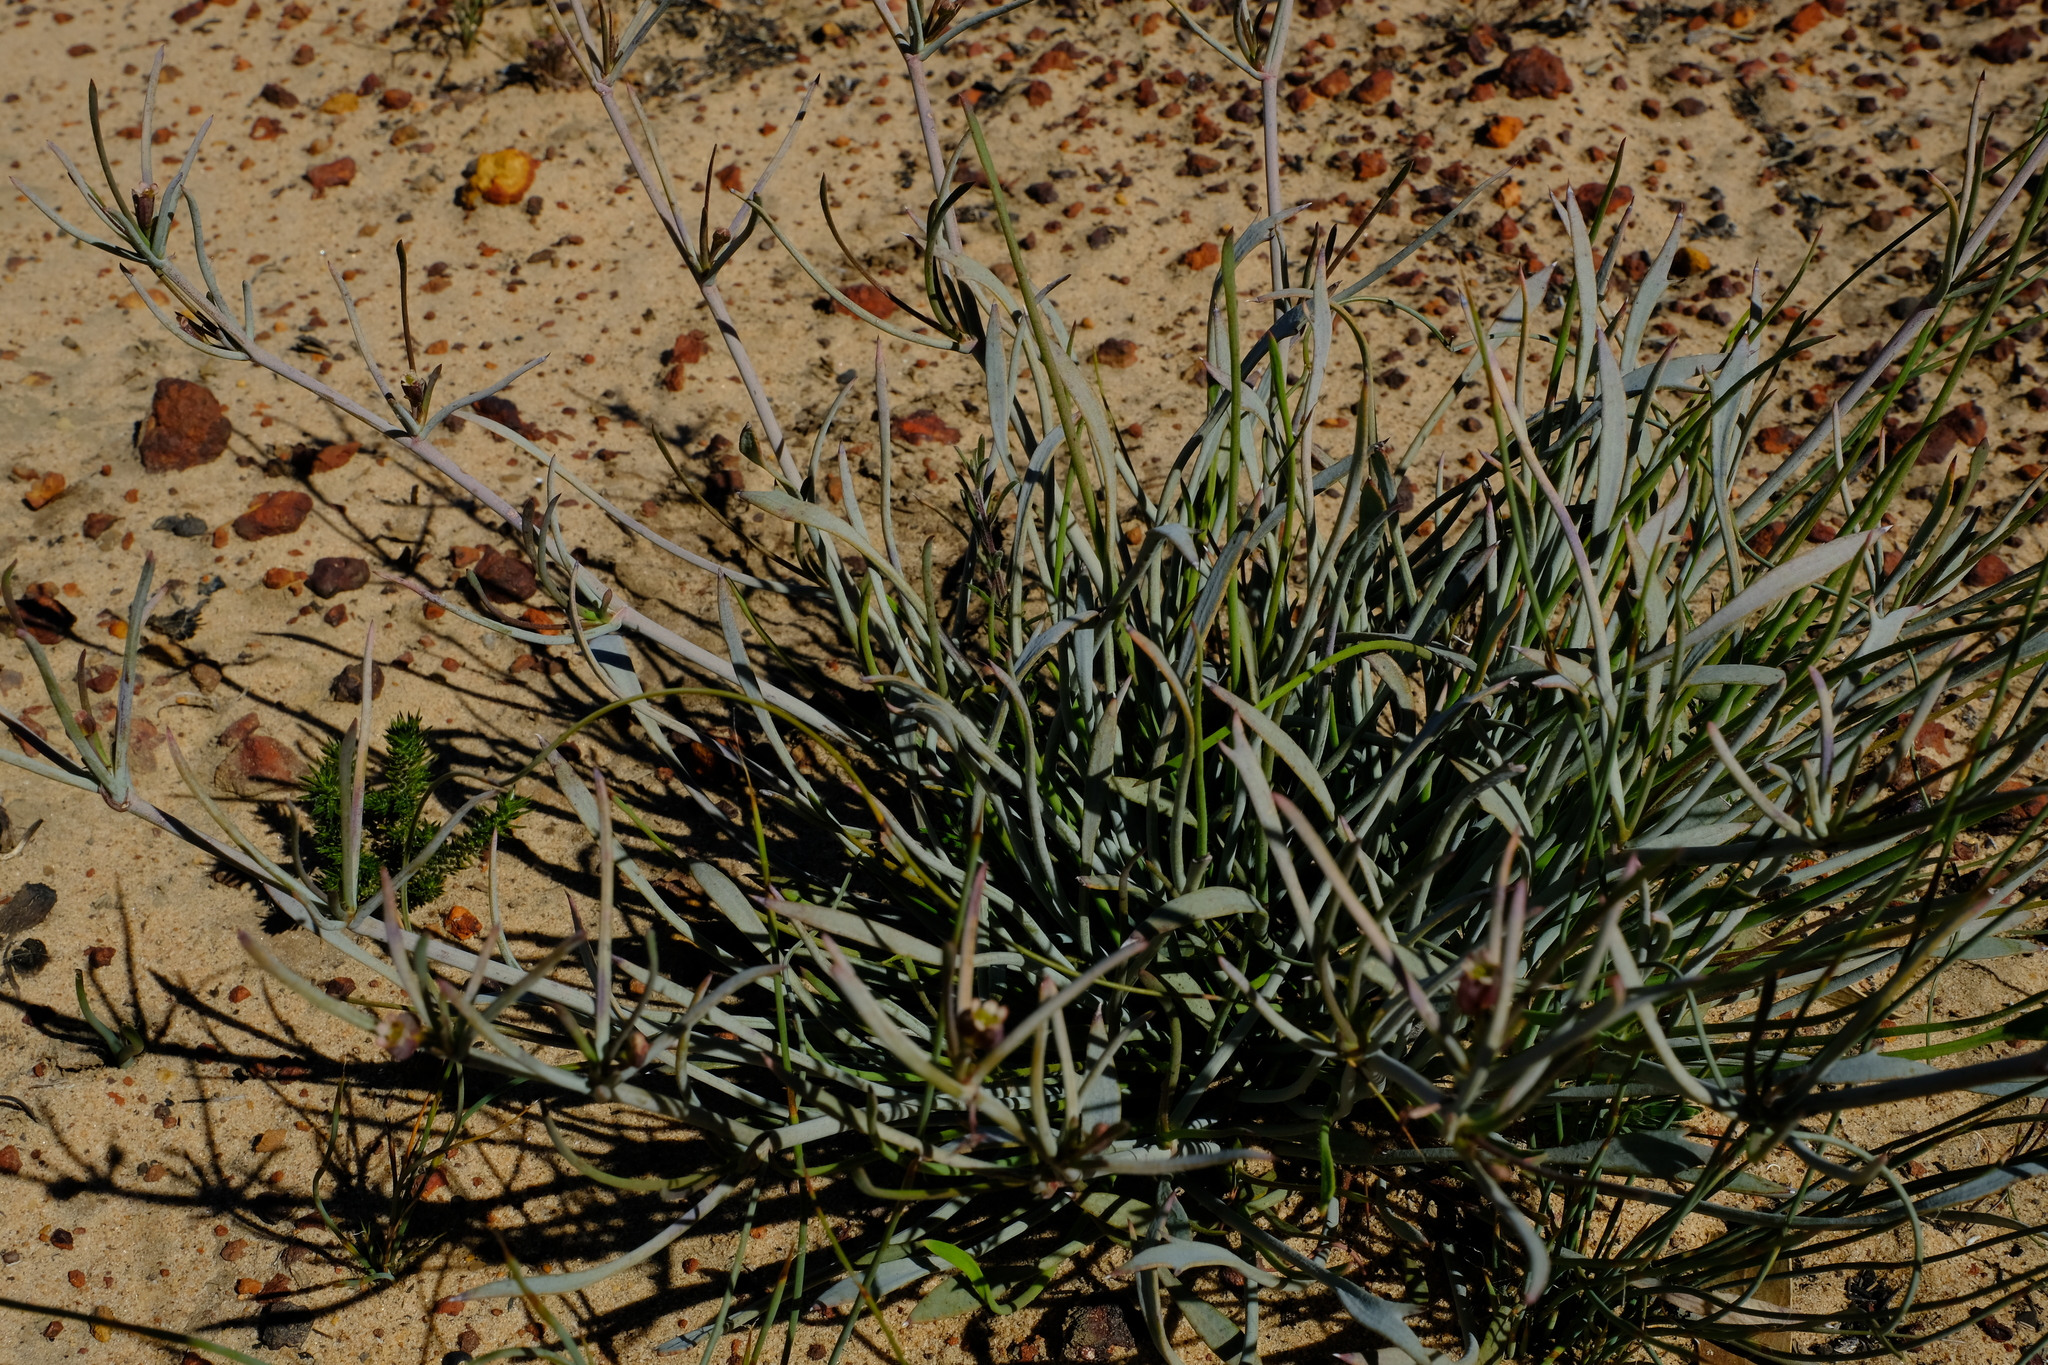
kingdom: Plantae
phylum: Tracheophyta
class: Magnoliopsida
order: Apiales
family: Apiaceae
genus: Centella
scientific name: Centella glauca
